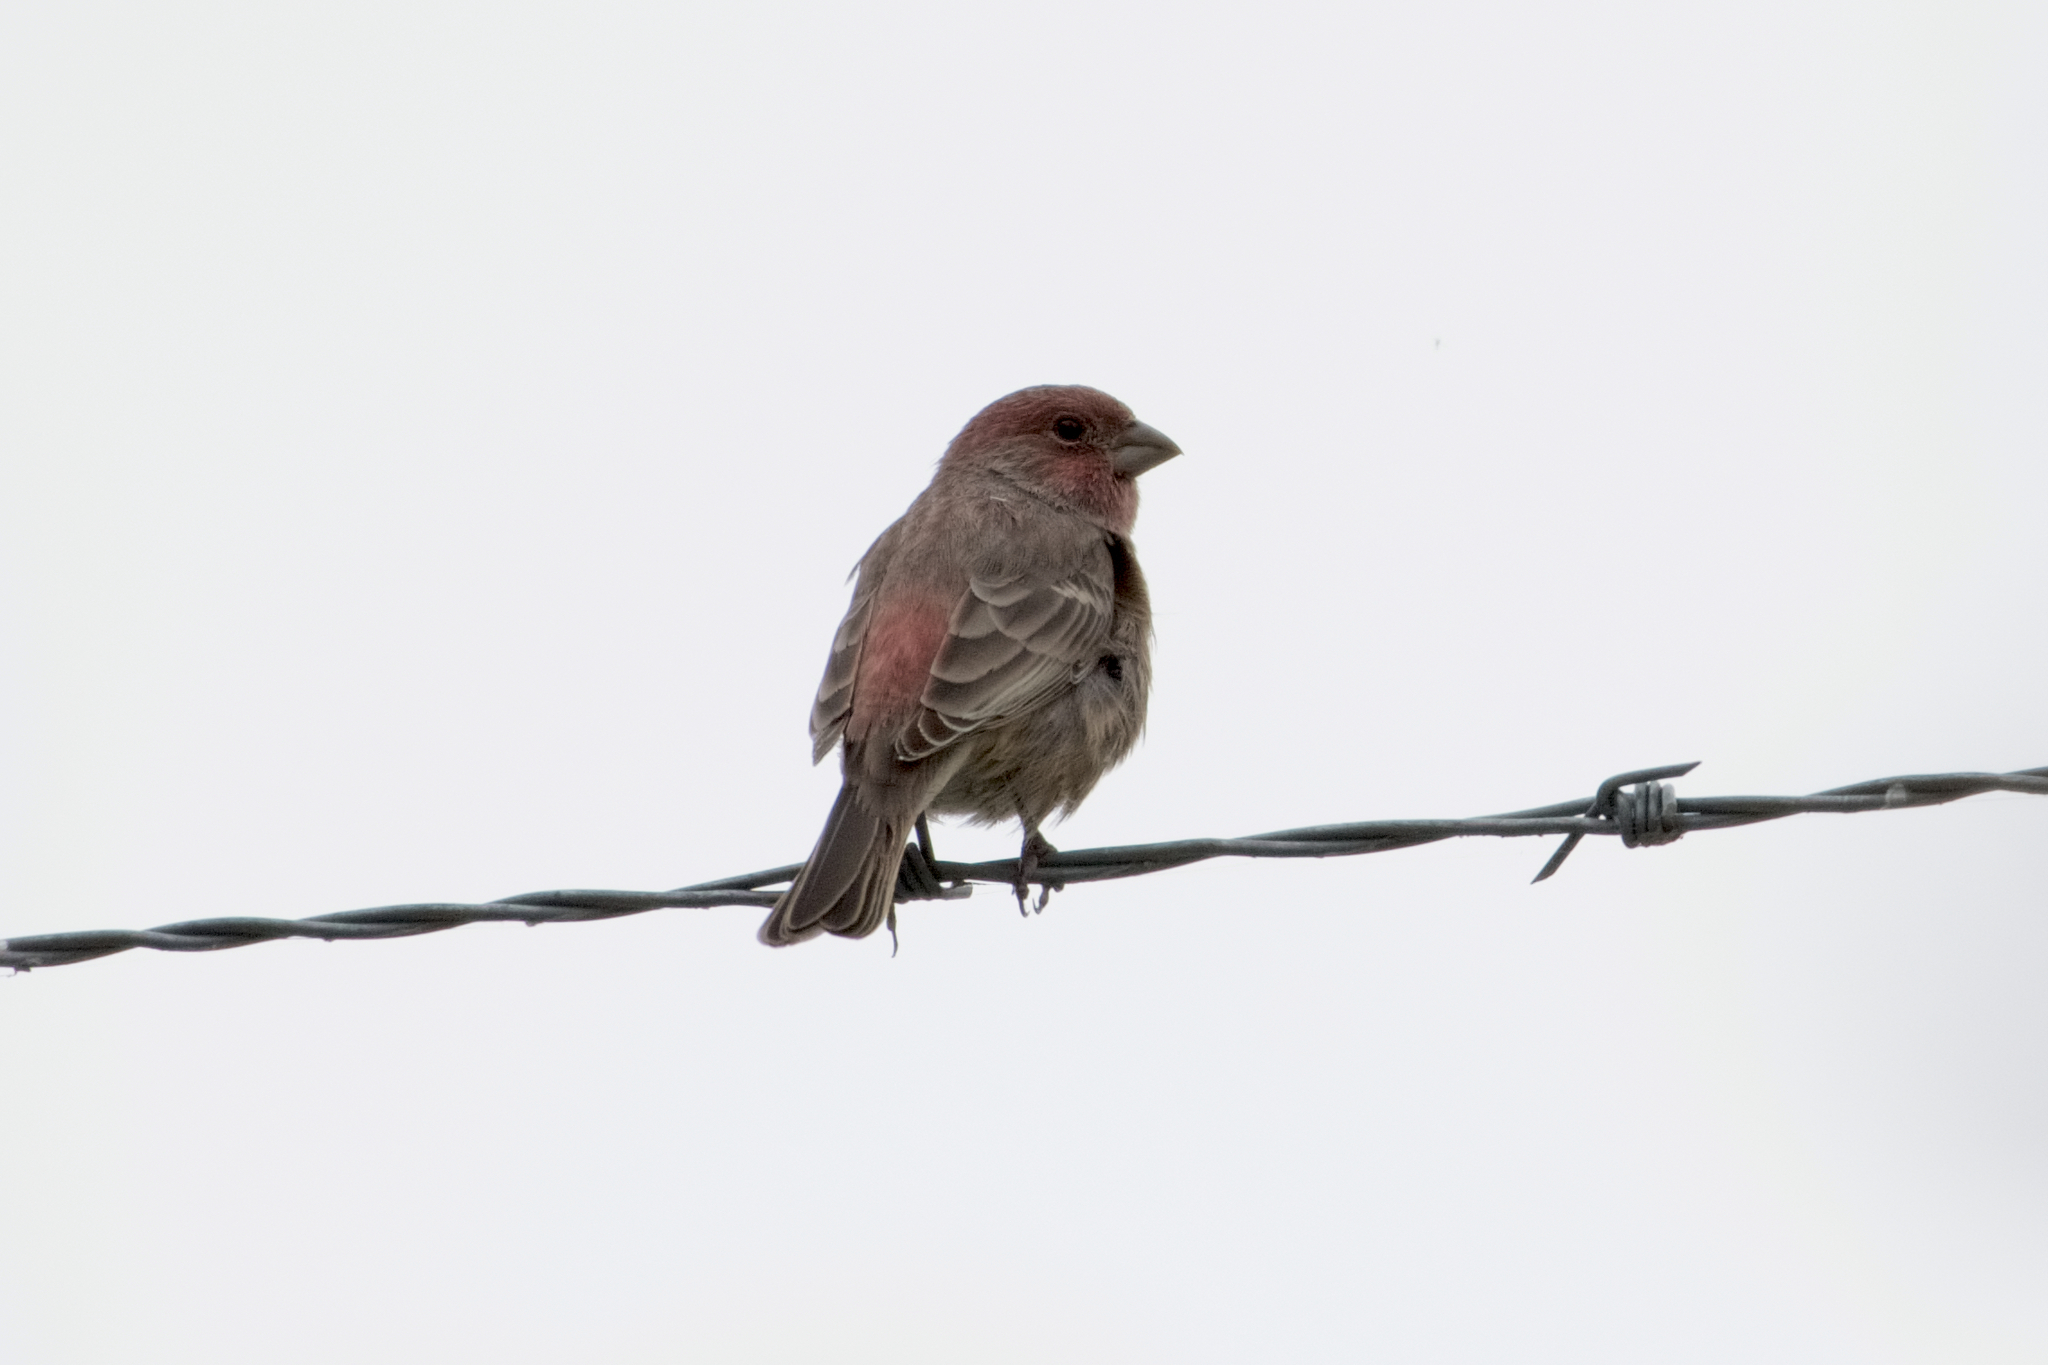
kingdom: Animalia
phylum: Chordata
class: Aves
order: Passeriformes
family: Fringillidae
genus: Haemorhous
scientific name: Haemorhous mexicanus
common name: House finch
